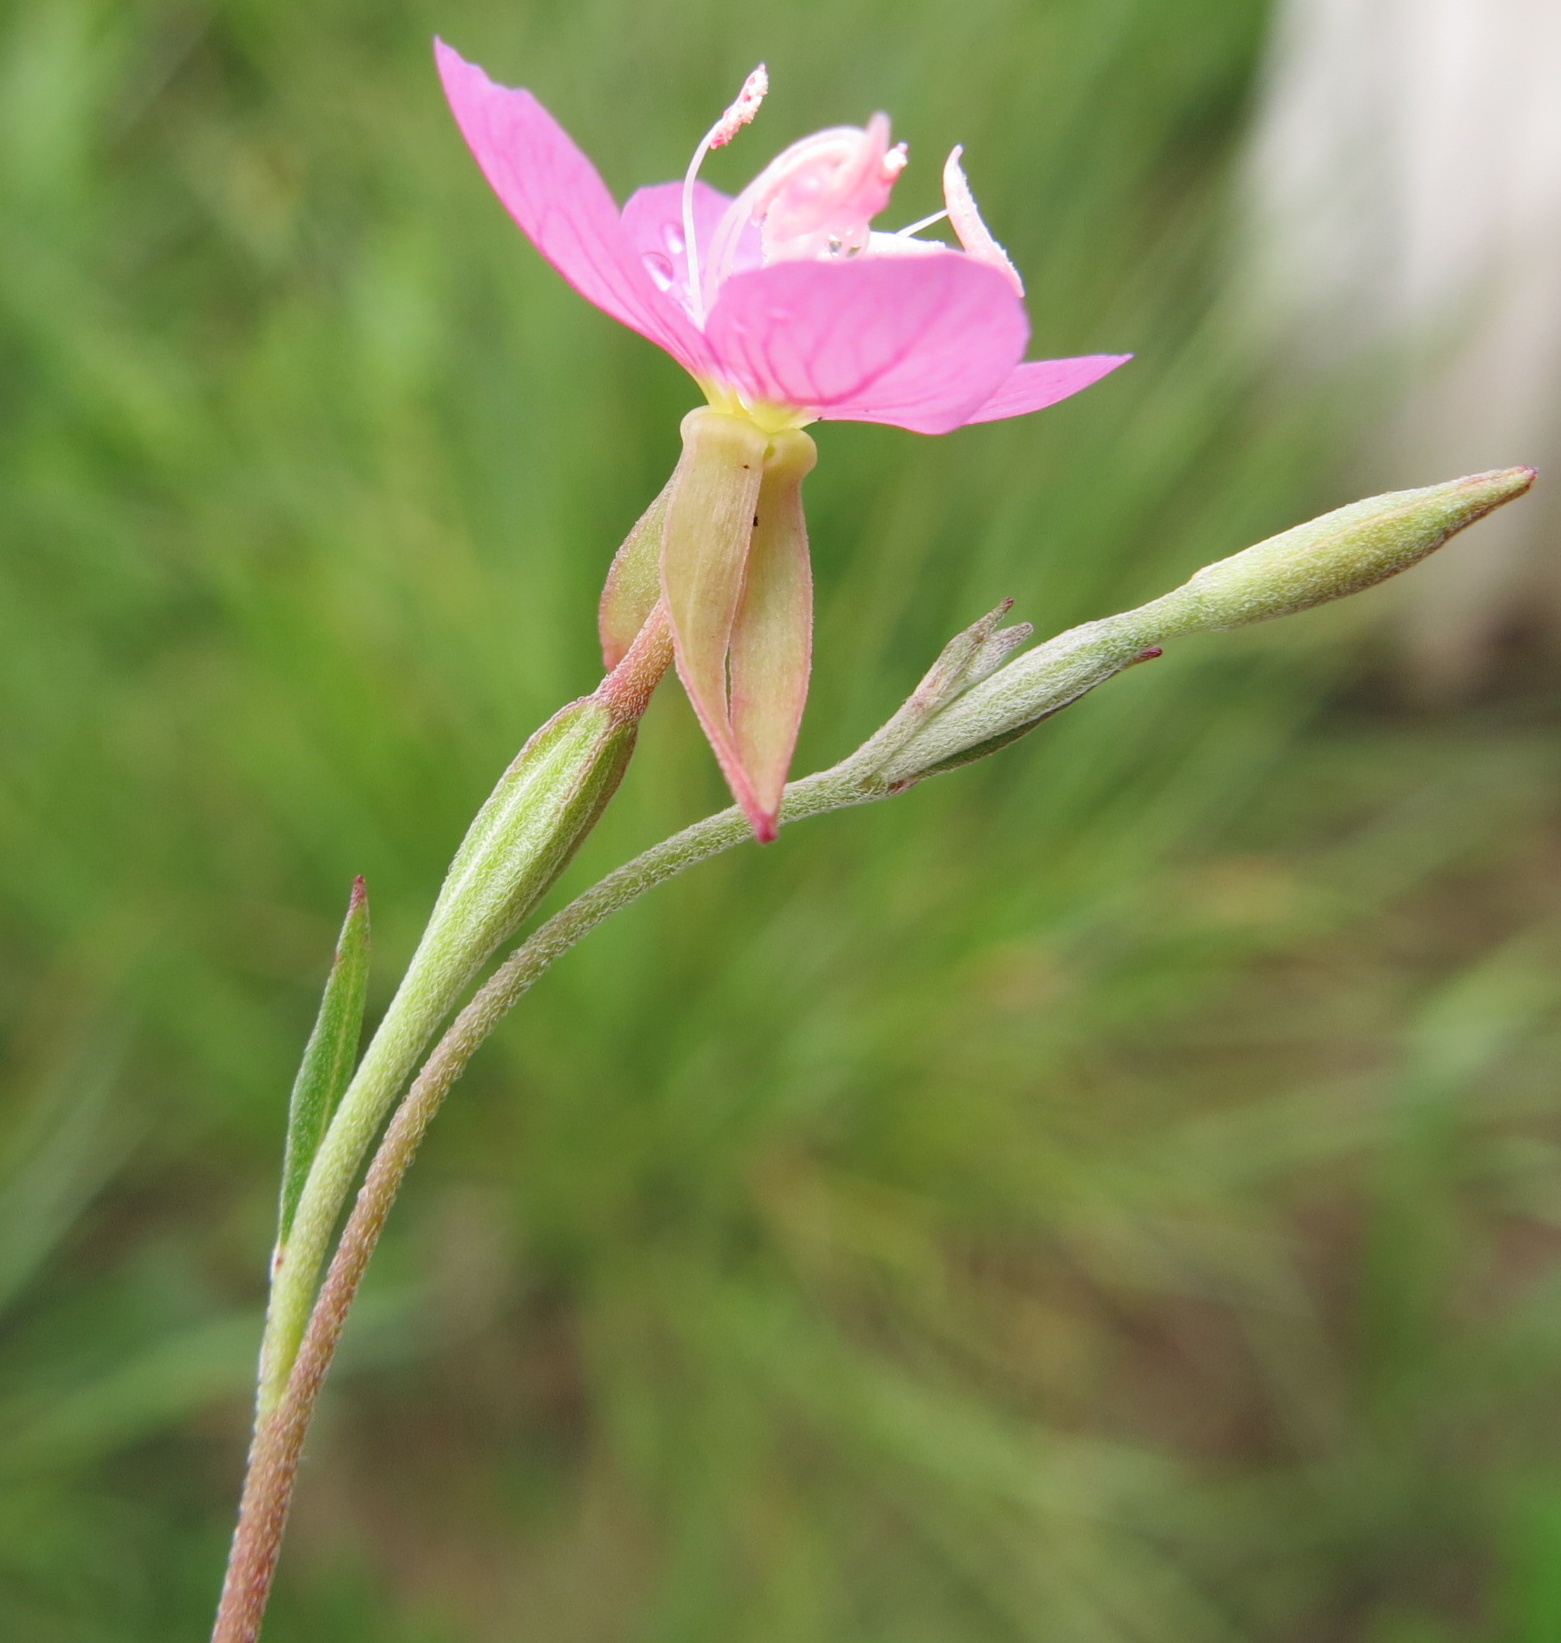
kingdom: Plantae
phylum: Tracheophyta
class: Magnoliopsida
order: Myrtales
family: Onagraceae
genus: Oenothera
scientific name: Oenothera rosea
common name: Rosy evening-primrose
